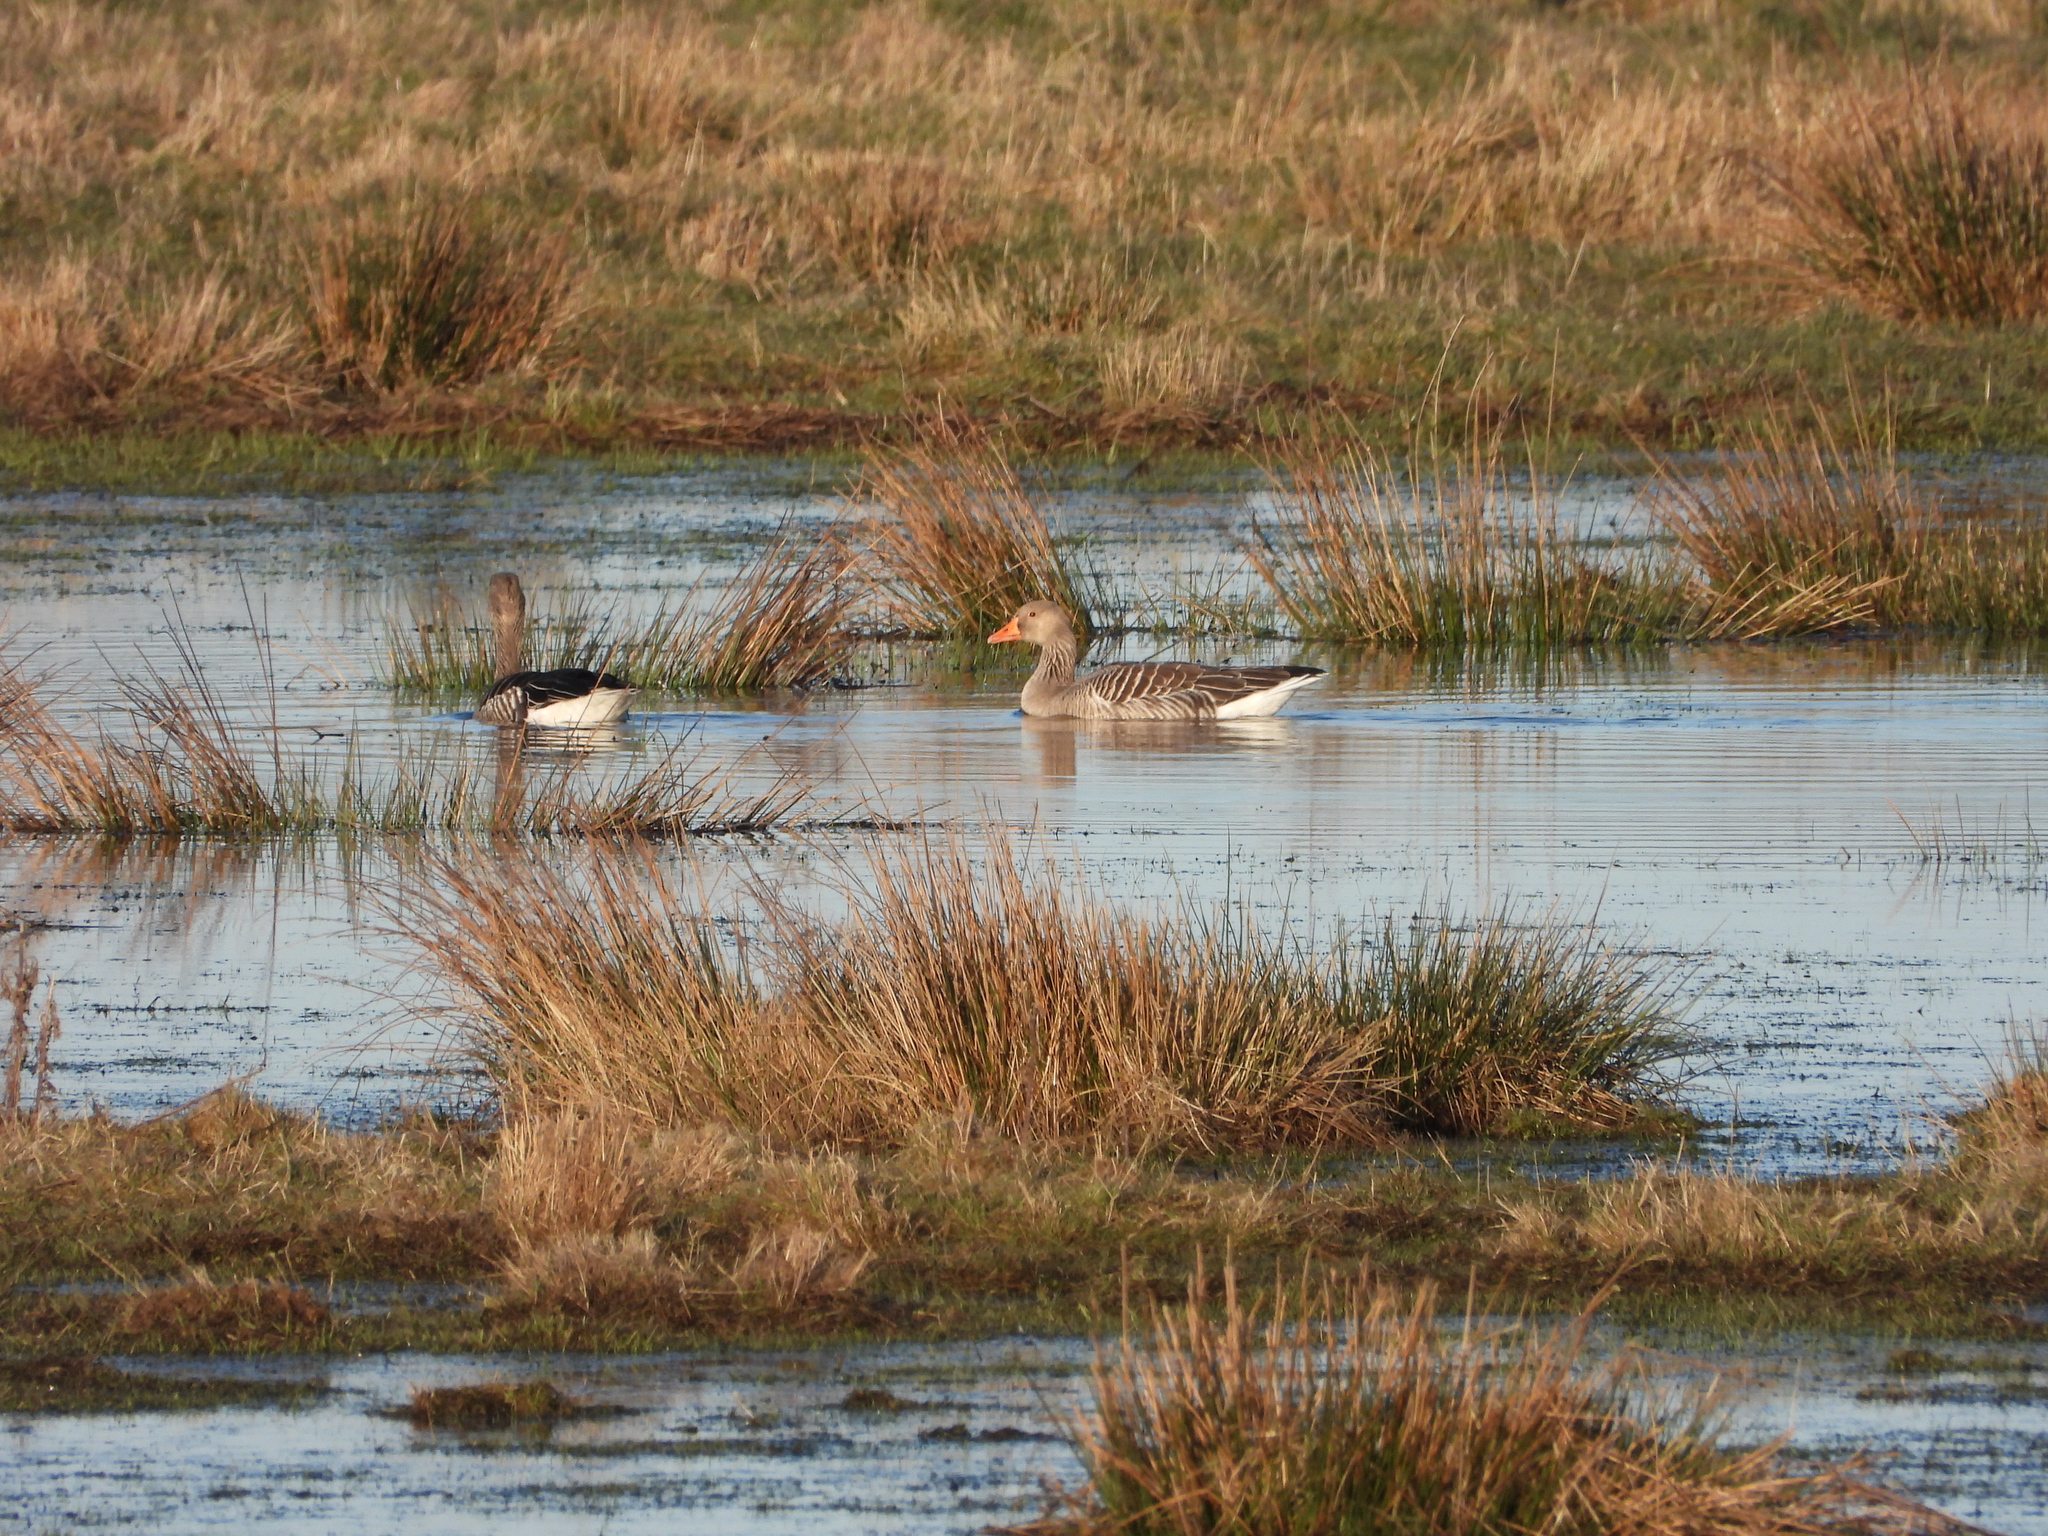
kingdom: Animalia
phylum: Chordata
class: Aves
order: Anseriformes
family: Anatidae
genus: Anser
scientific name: Anser anser
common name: Greylag goose
